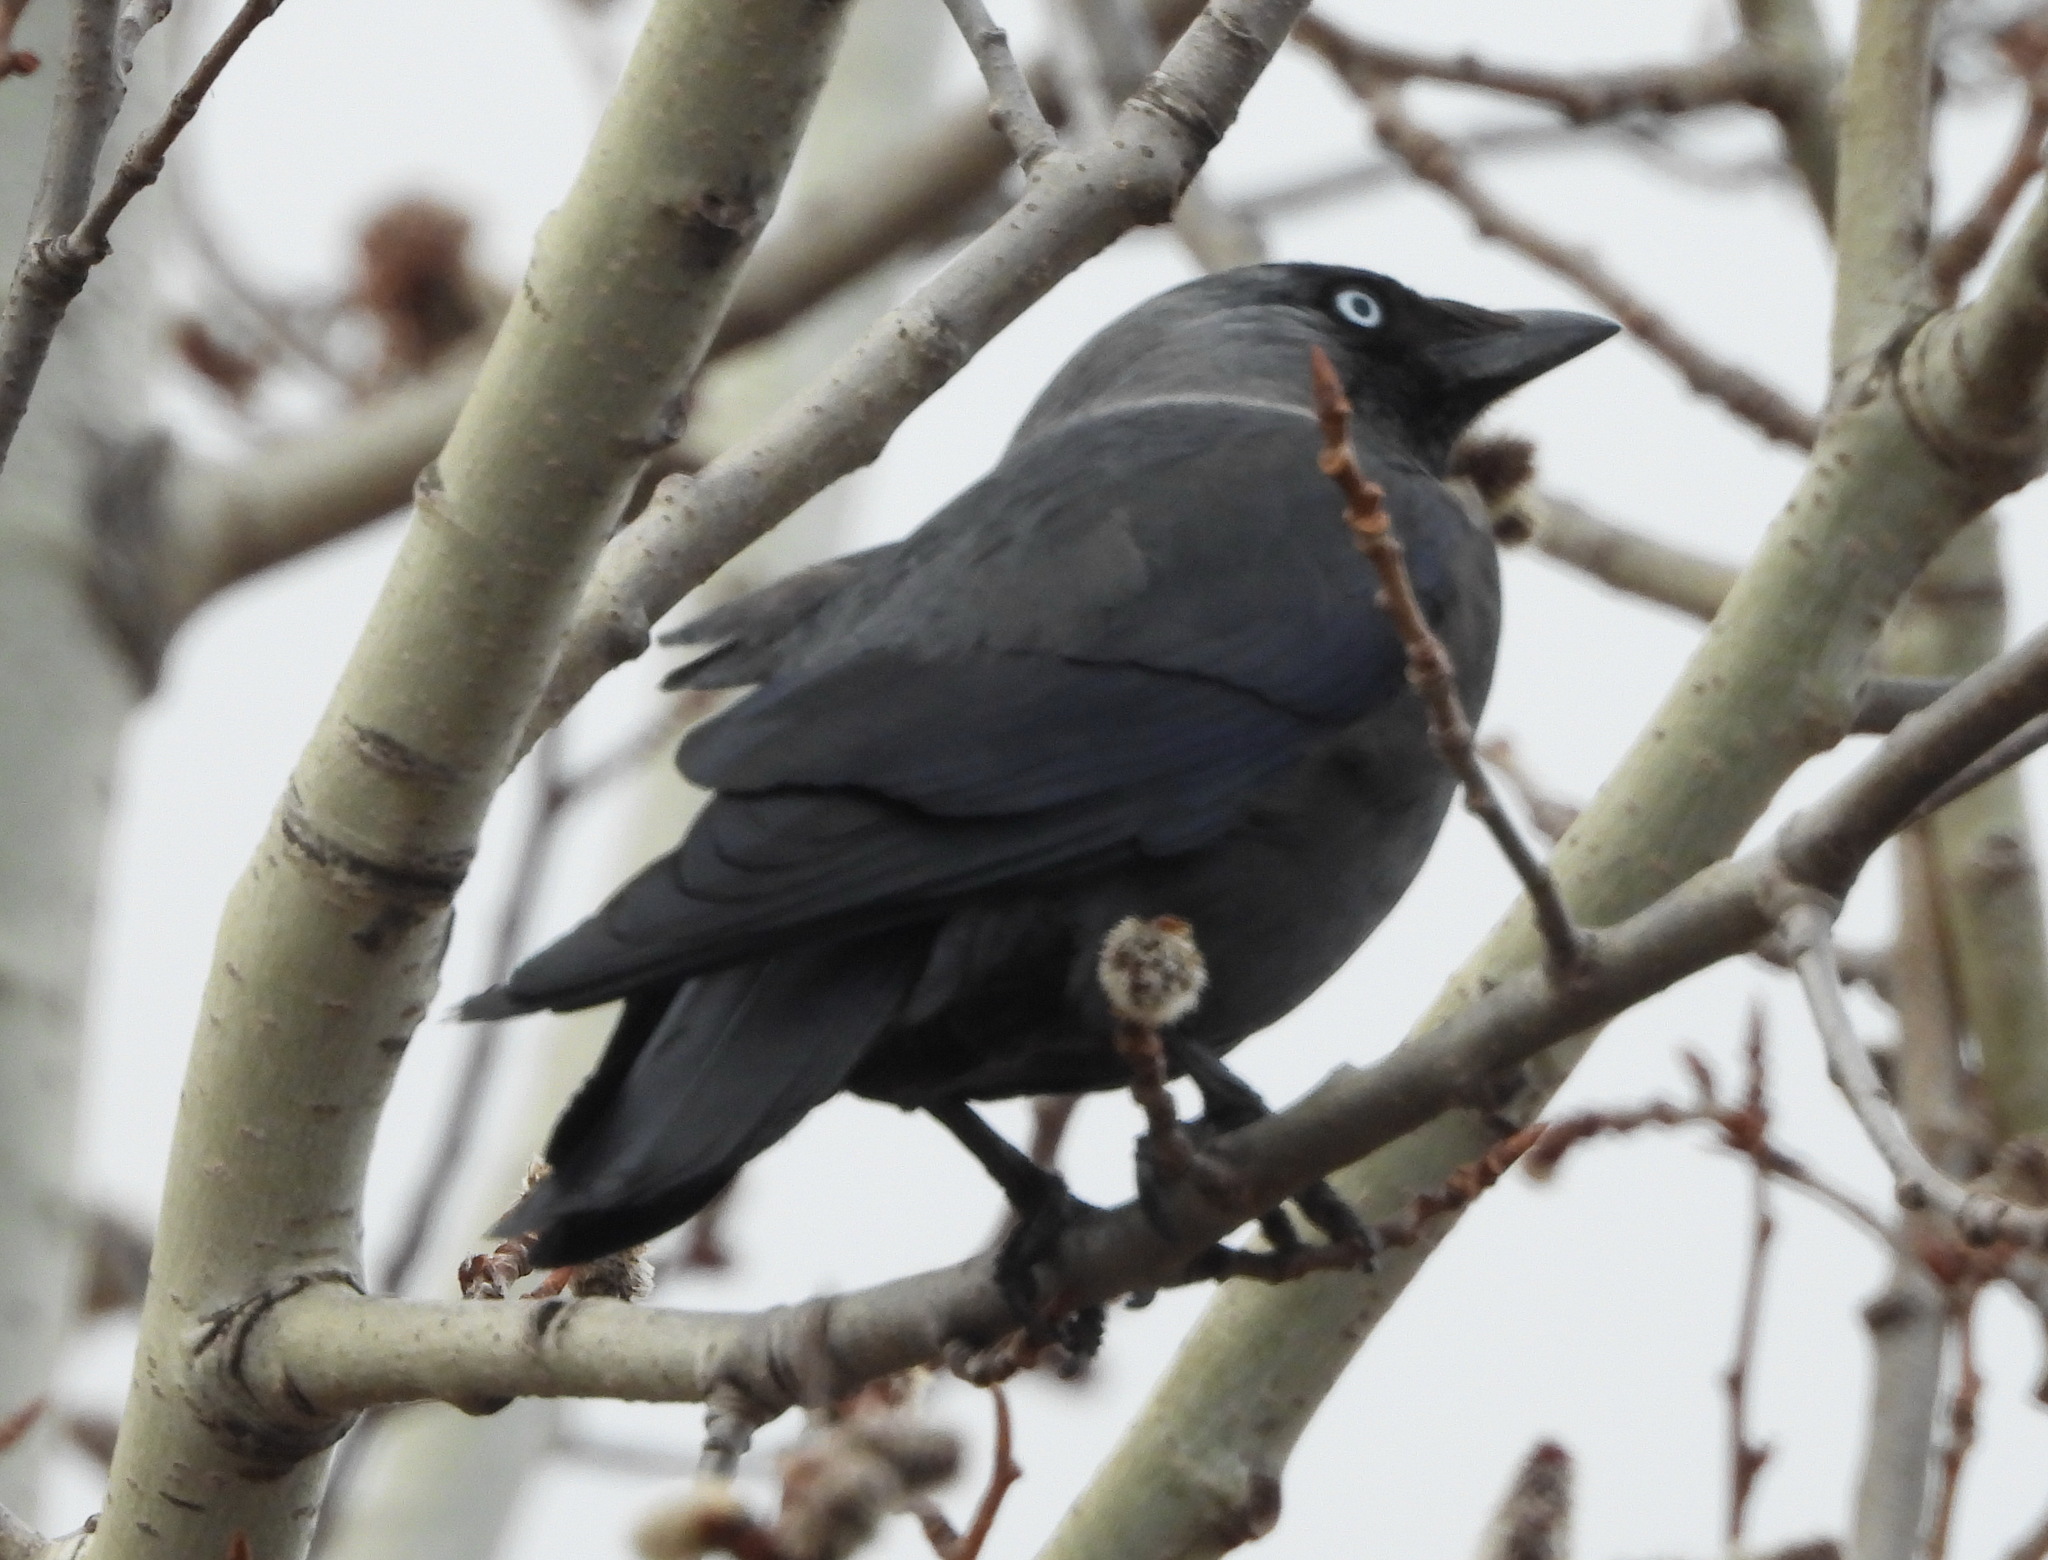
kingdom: Animalia
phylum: Chordata
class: Aves
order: Passeriformes
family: Corvidae
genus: Coloeus
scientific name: Coloeus monedula
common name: Western jackdaw
